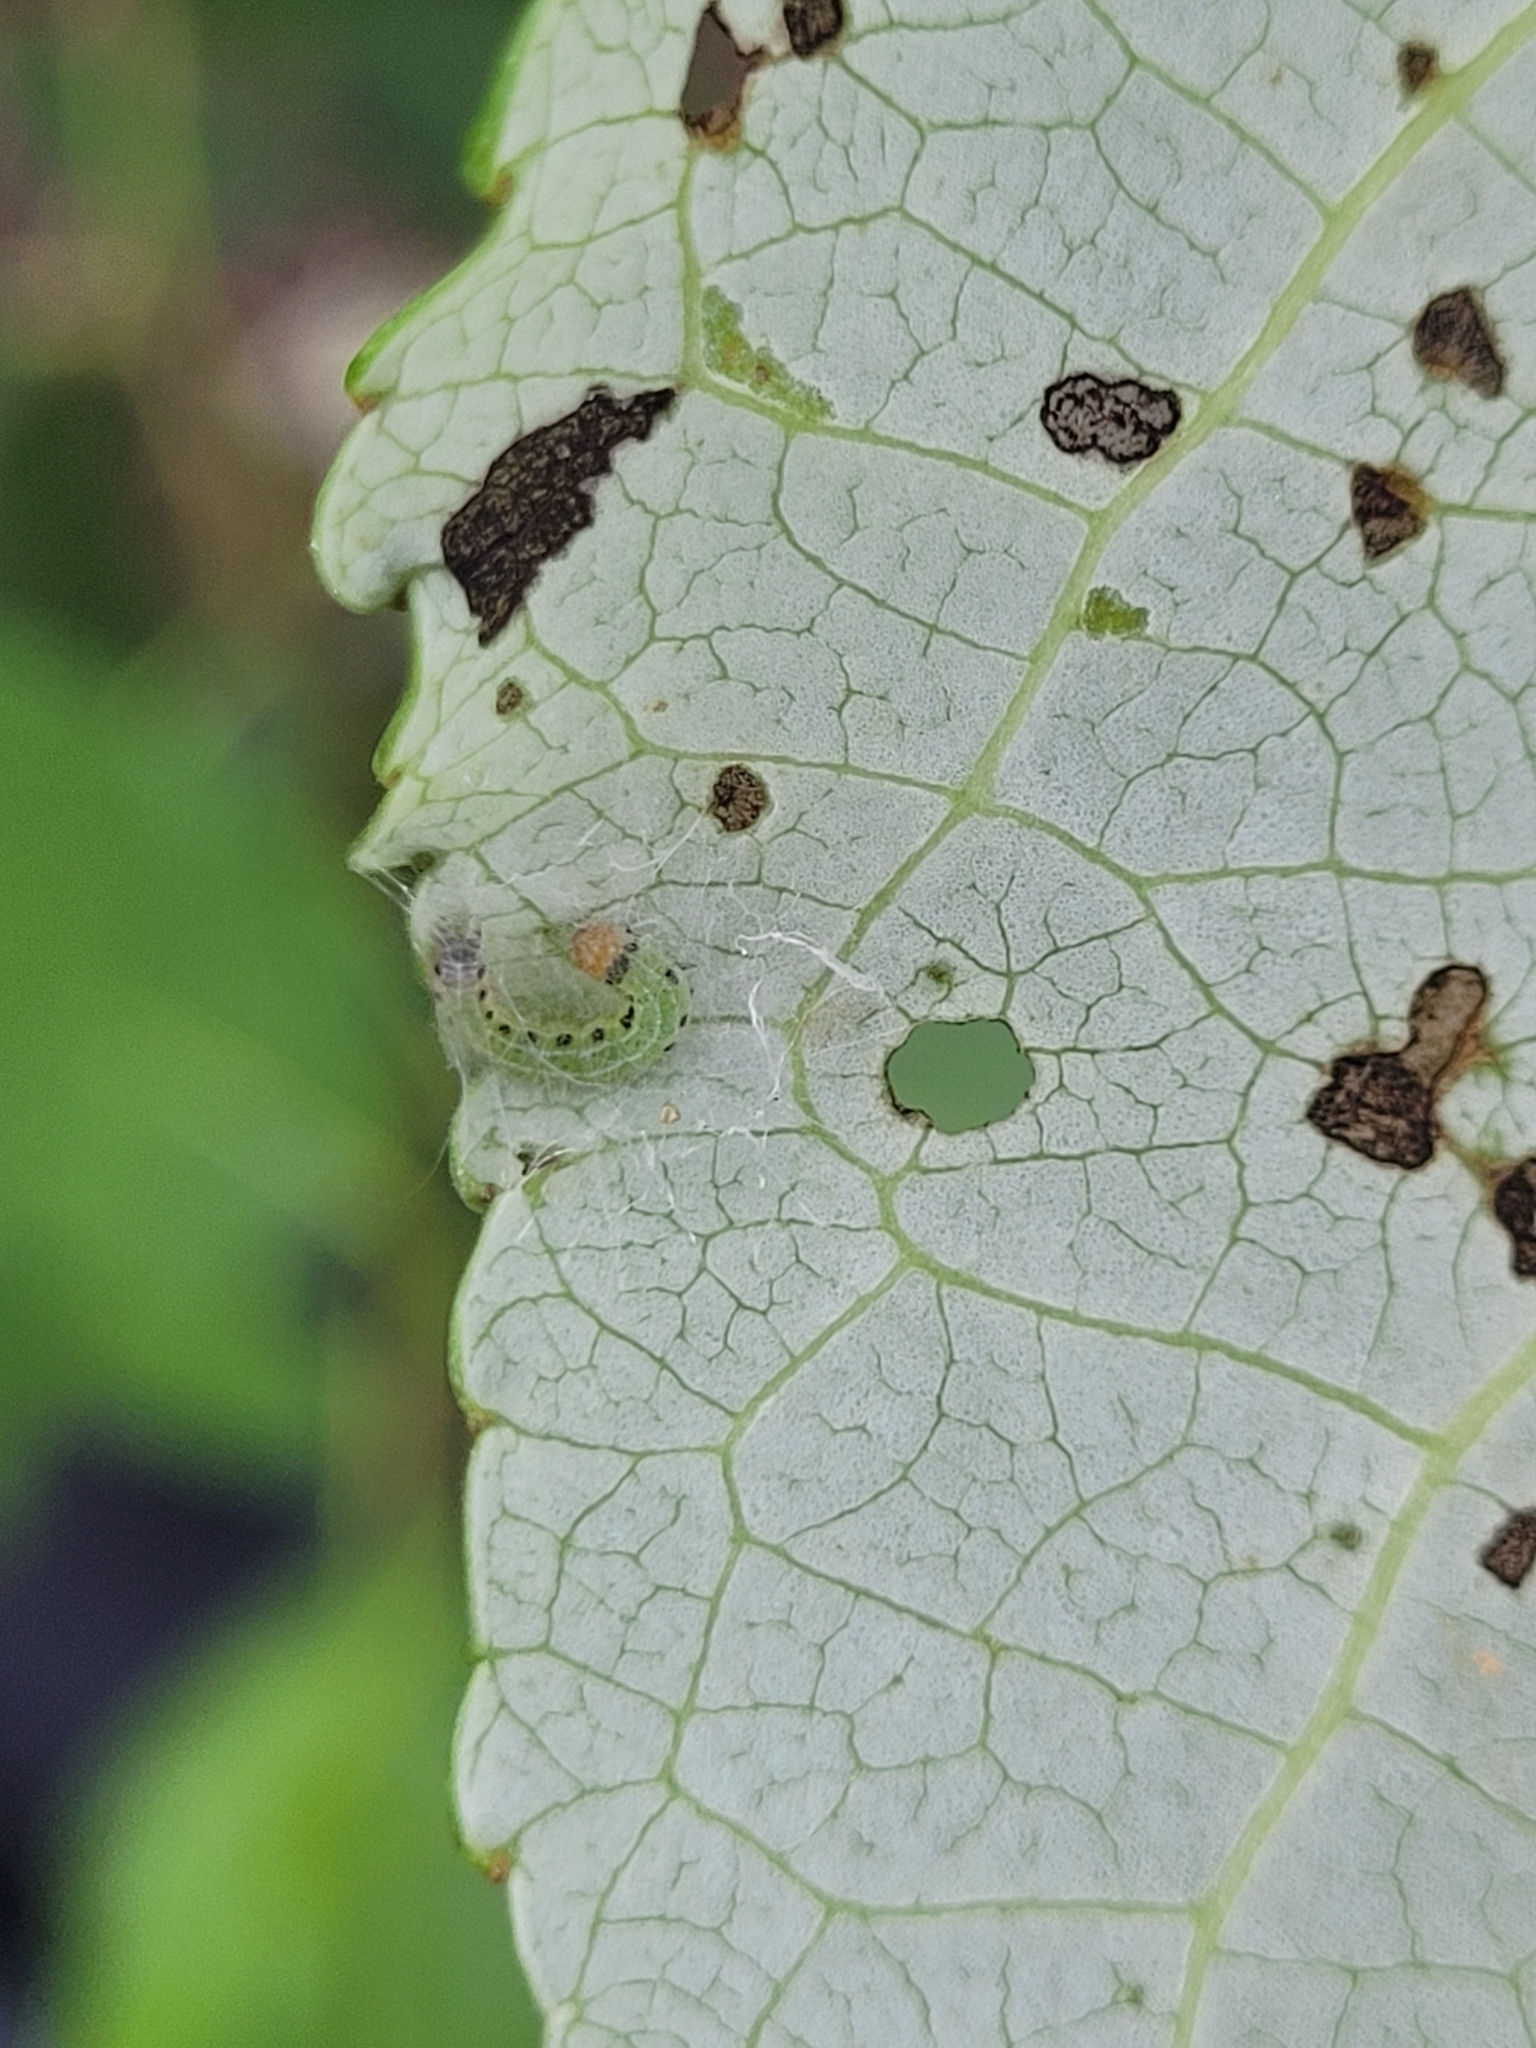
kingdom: Animalia
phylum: Arthropoda
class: Insecta
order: Lepidoptera
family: Noctuidae
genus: Achatia
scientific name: Achatia confusa
